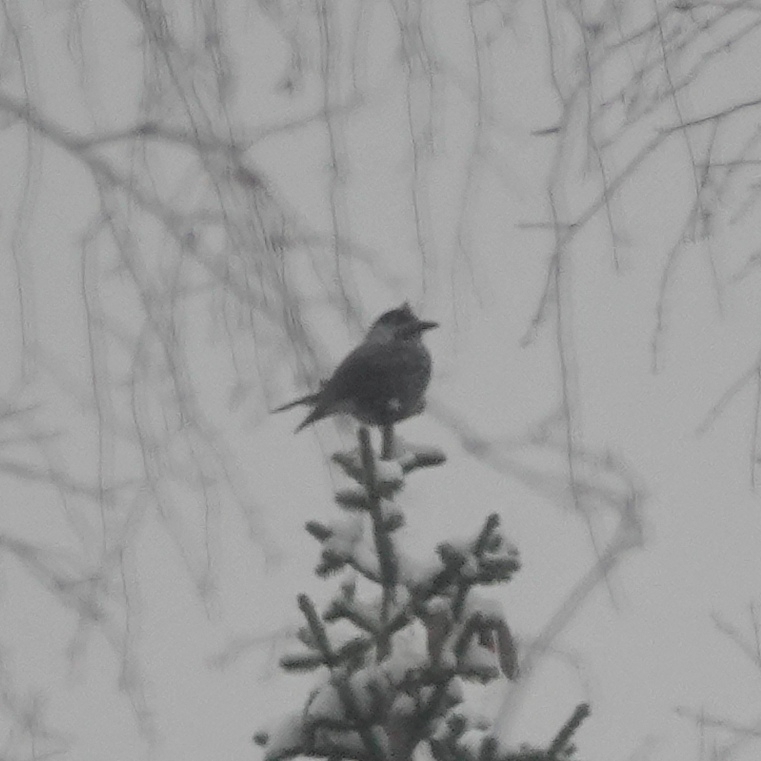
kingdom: Animalia
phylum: Chordata
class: Aves
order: Passeriformes
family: Corvidae
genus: Nucifraga
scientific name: Nucifraga caryocatactes
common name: Spotted nutcracker
